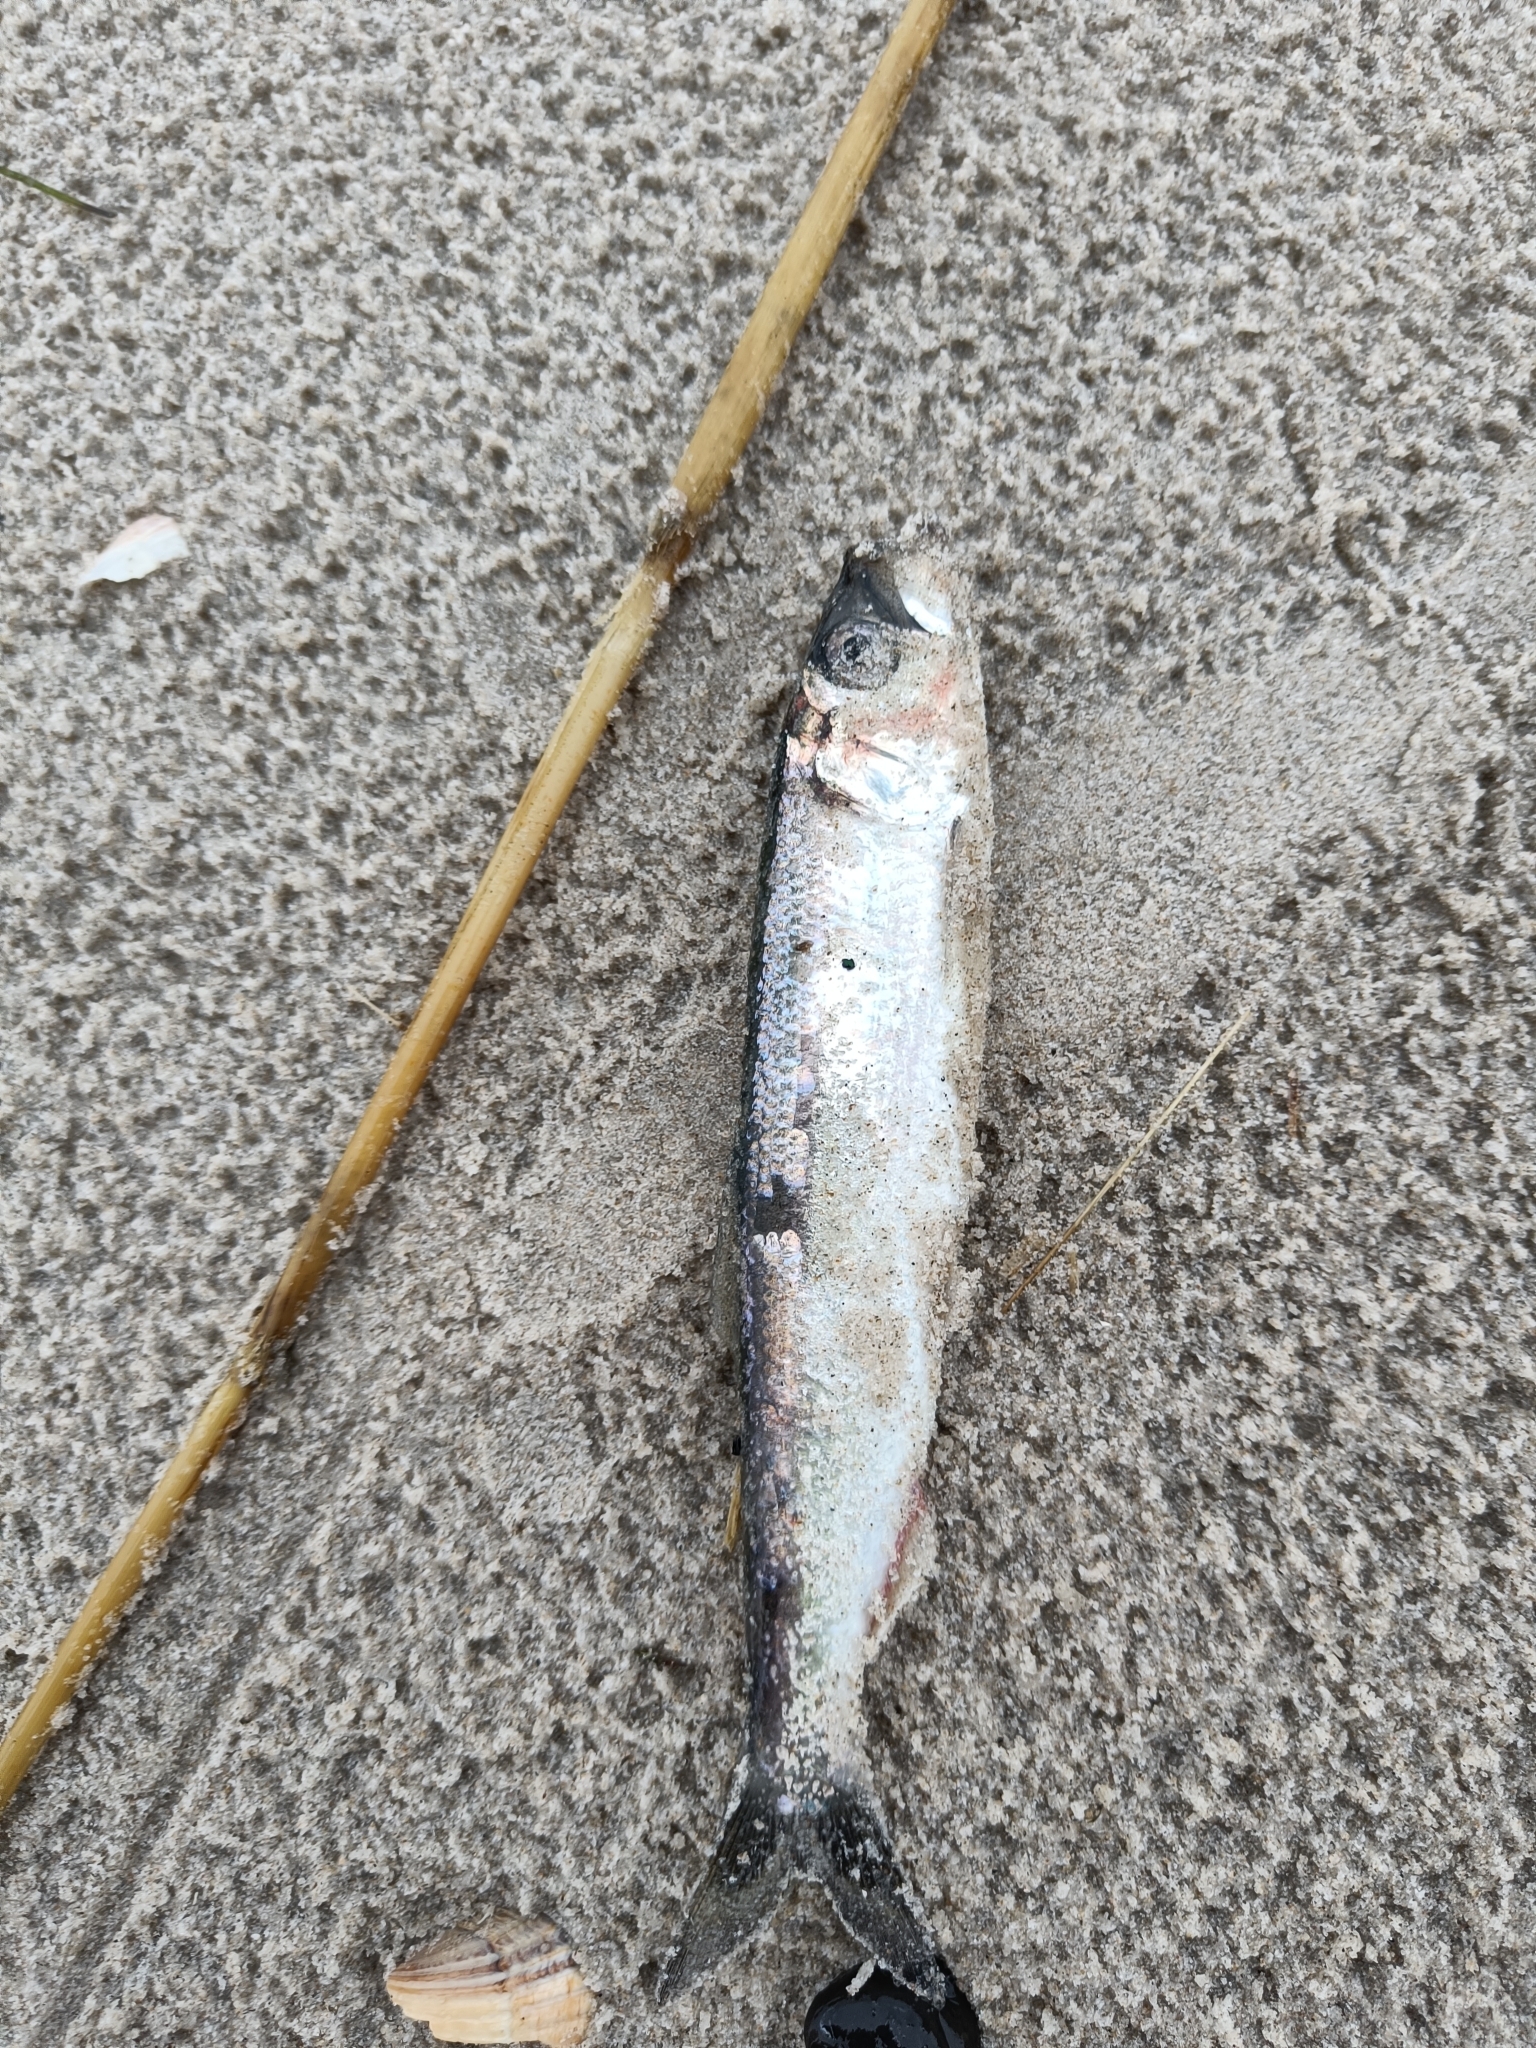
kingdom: Animalia
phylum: Chordata
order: Clupeiformes
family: Clupeidae
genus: Clupea
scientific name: Clupea harengus
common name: Herring
